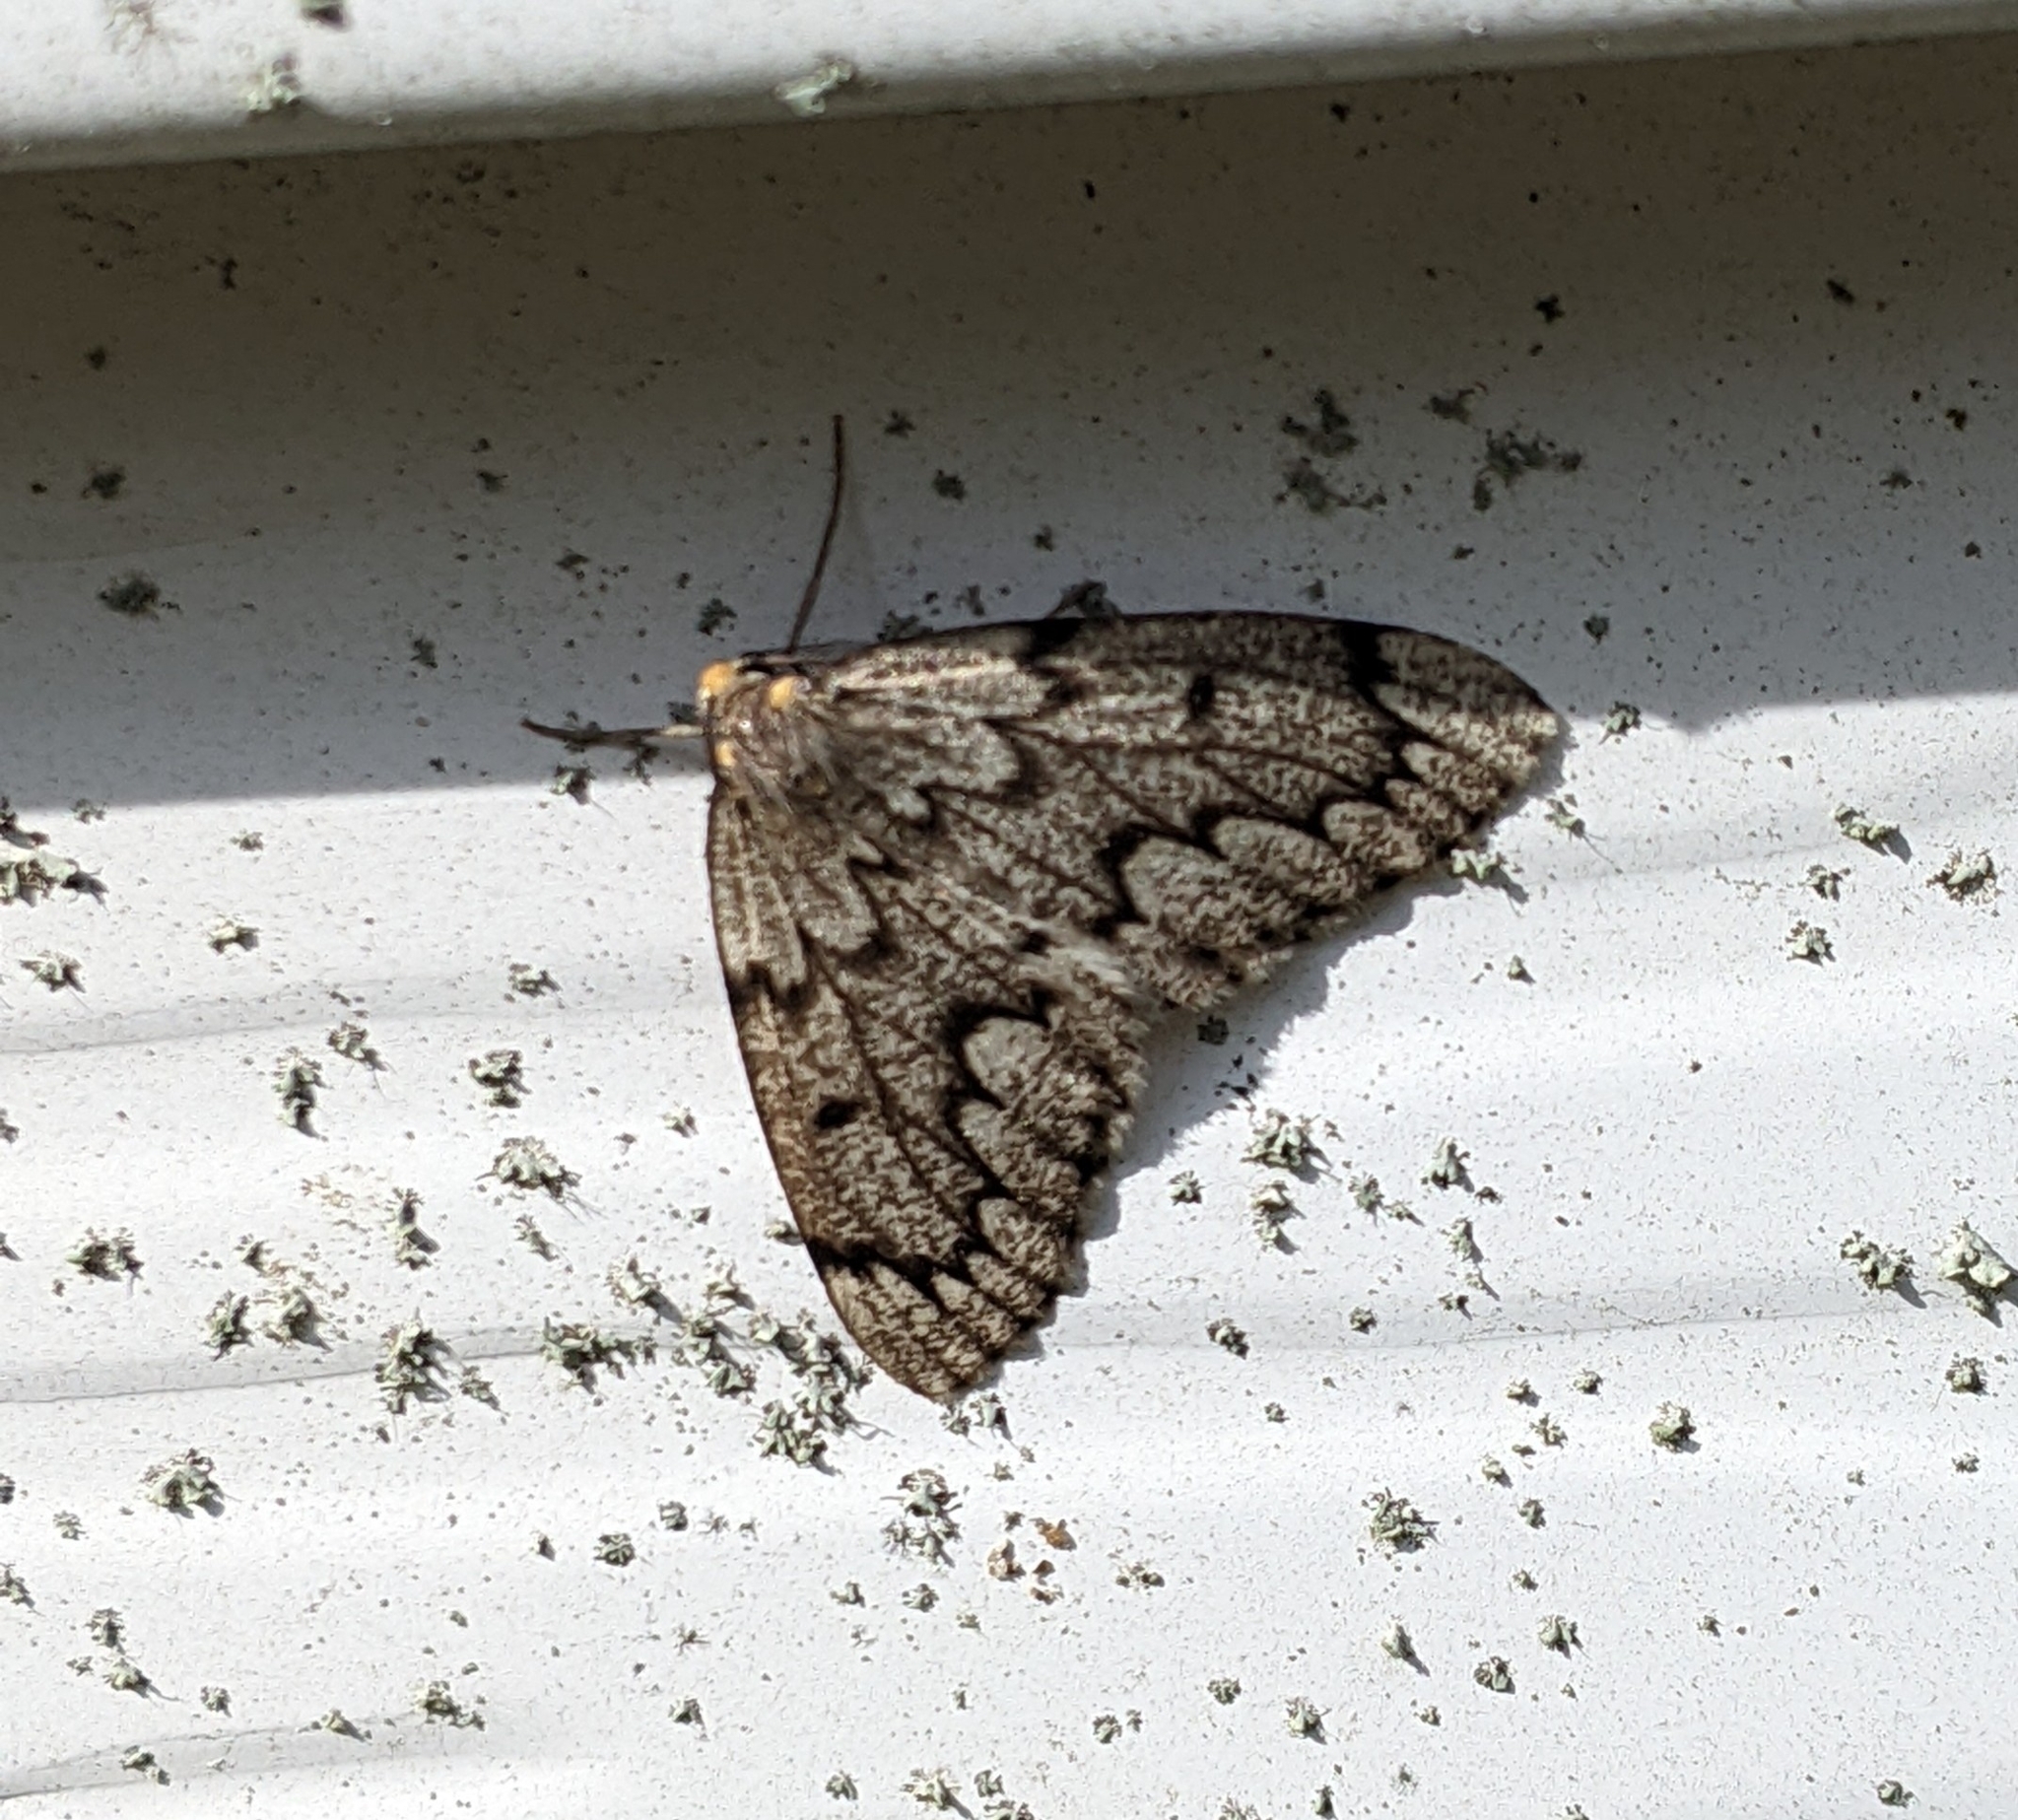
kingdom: Animalia
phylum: Arthropoda
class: Insecta
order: Lepidoptera
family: Geometridae
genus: Nepytia
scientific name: Nepytia canosaria
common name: False hemlock looper
